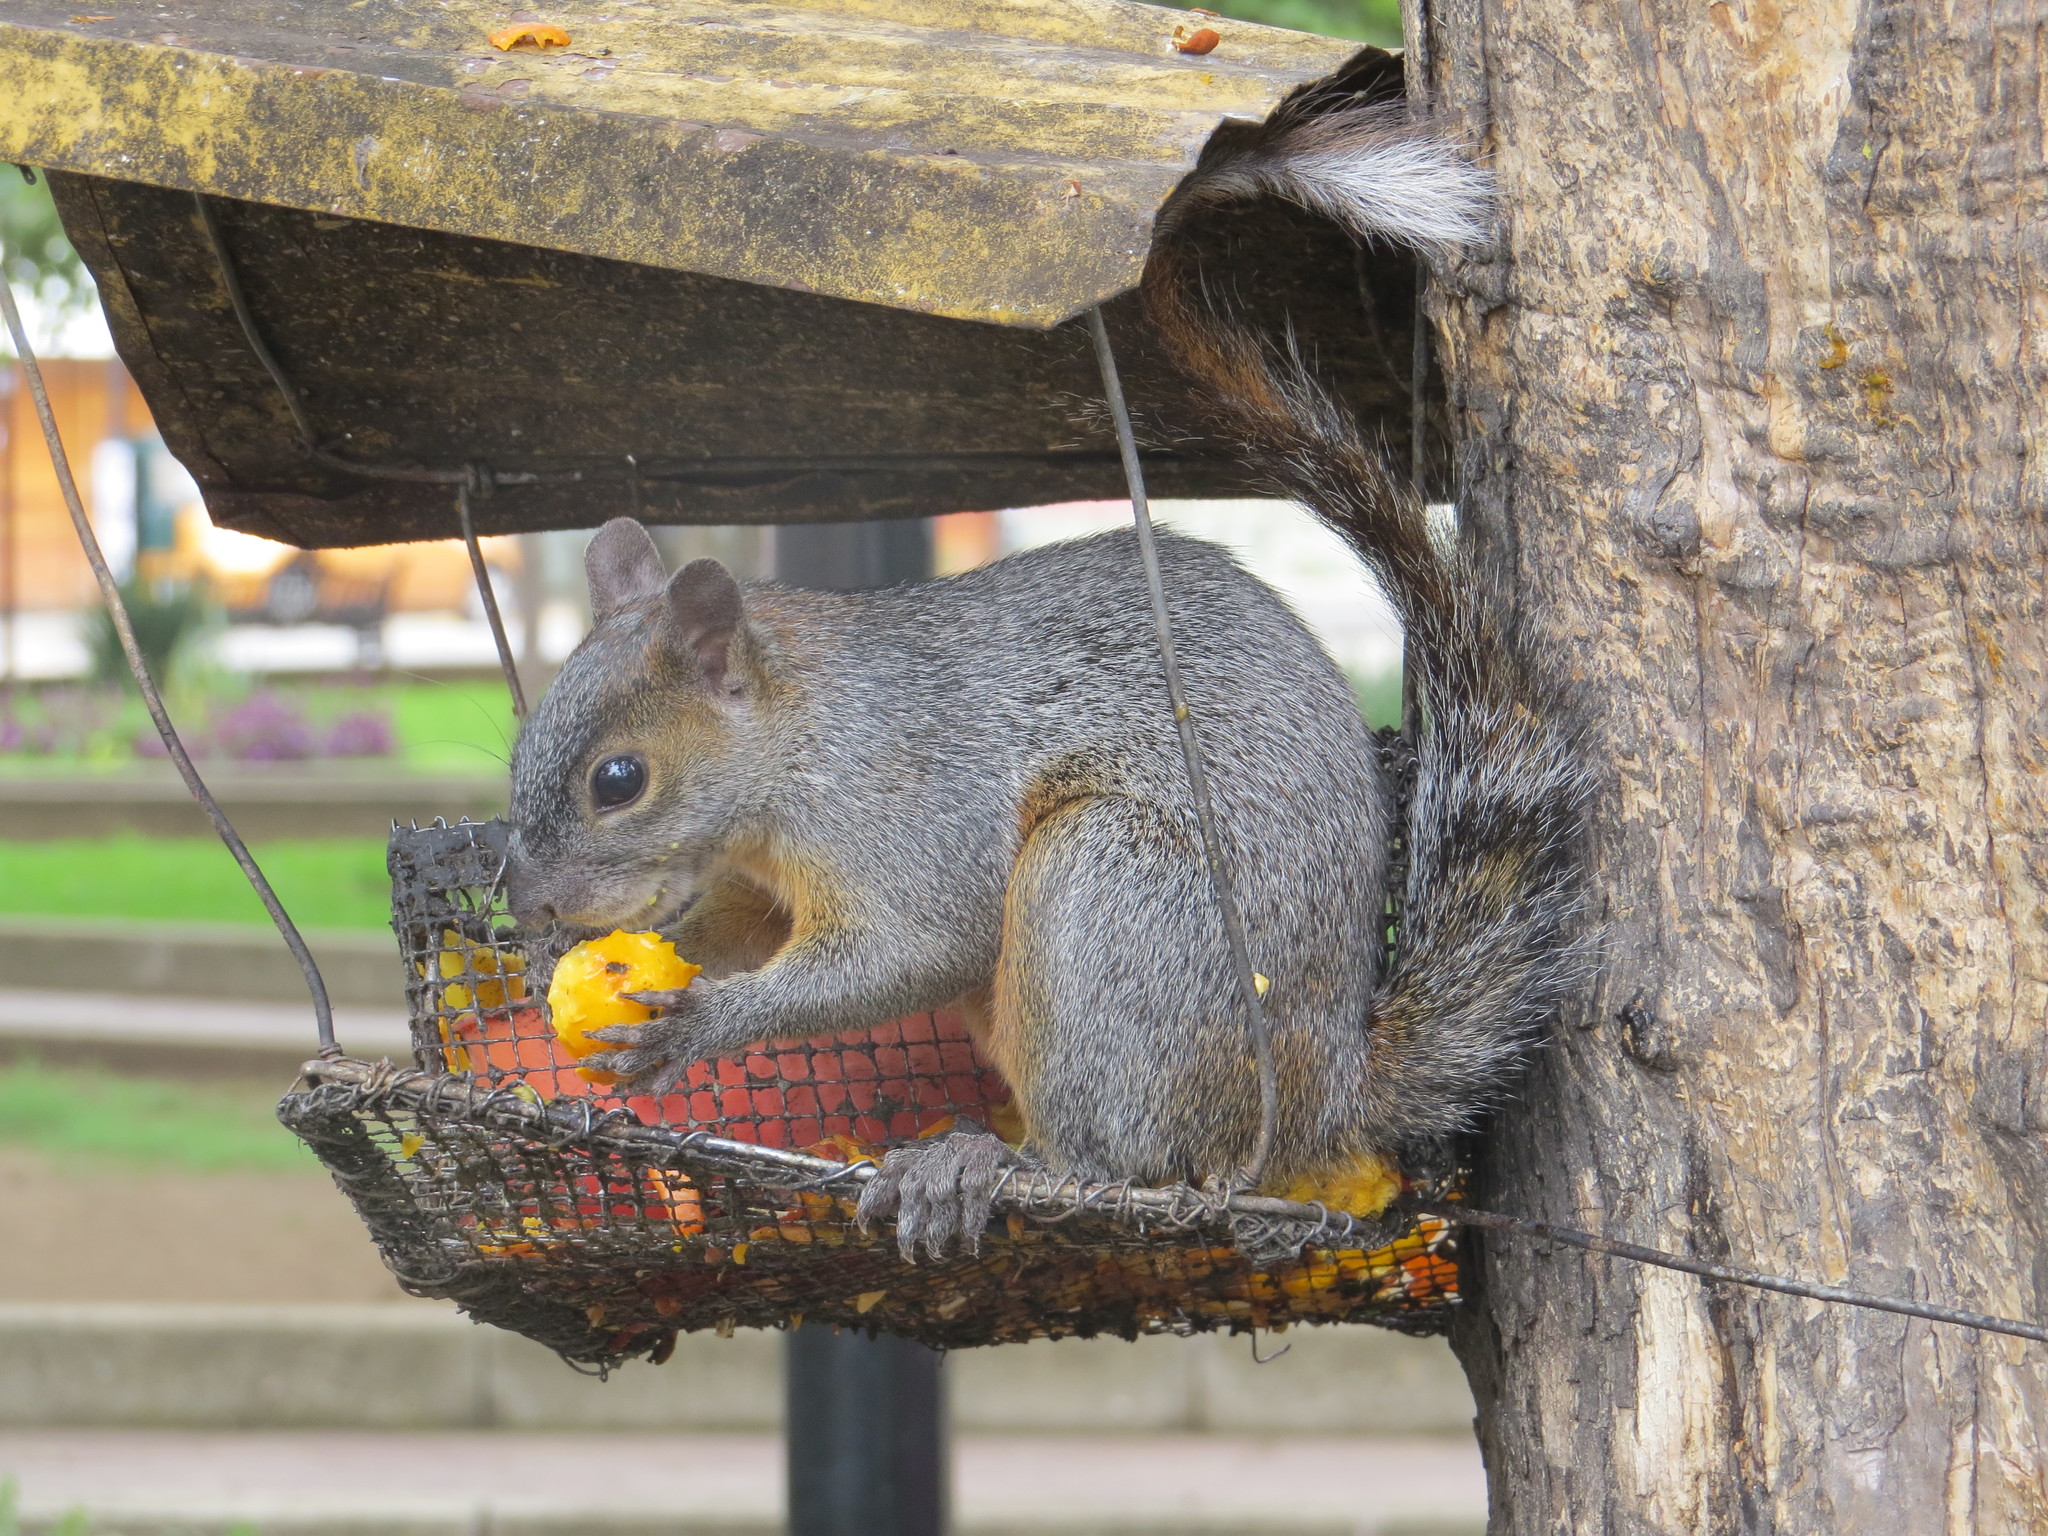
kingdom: Animalia
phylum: Chordata
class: Mammalia
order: Rodentia
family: Sciuridae
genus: Sciurus
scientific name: Sciurus aureogaster
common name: Red-bellied squirrel
